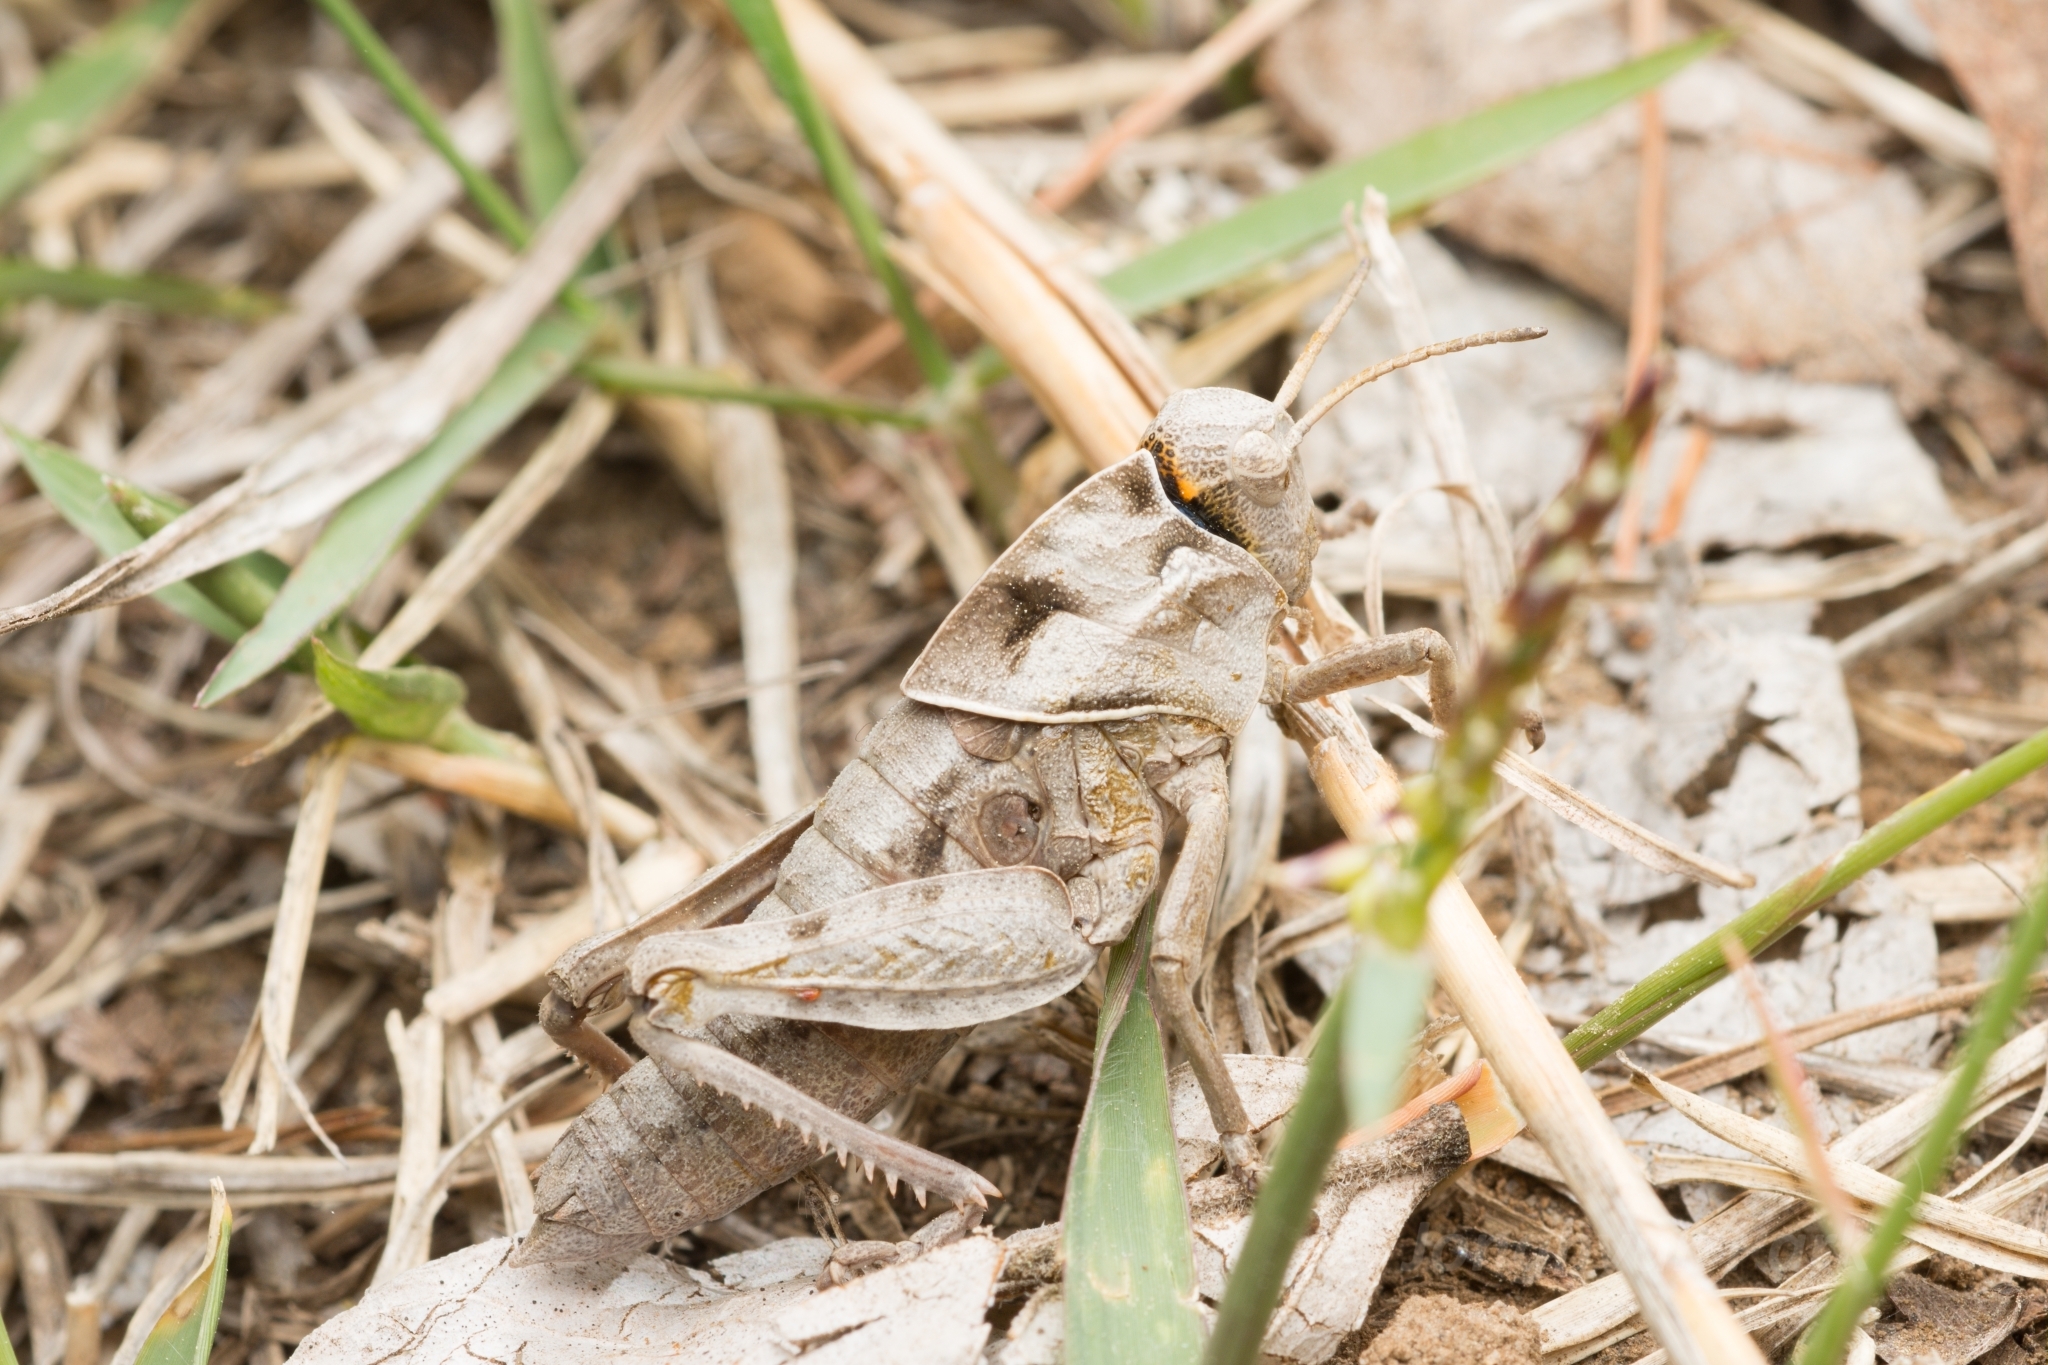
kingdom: Animalia
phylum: Arthropoda
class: Insecta
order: Orthoptera
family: Pamphagidae
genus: Haplotropis
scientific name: Haplotropis brunneriana
